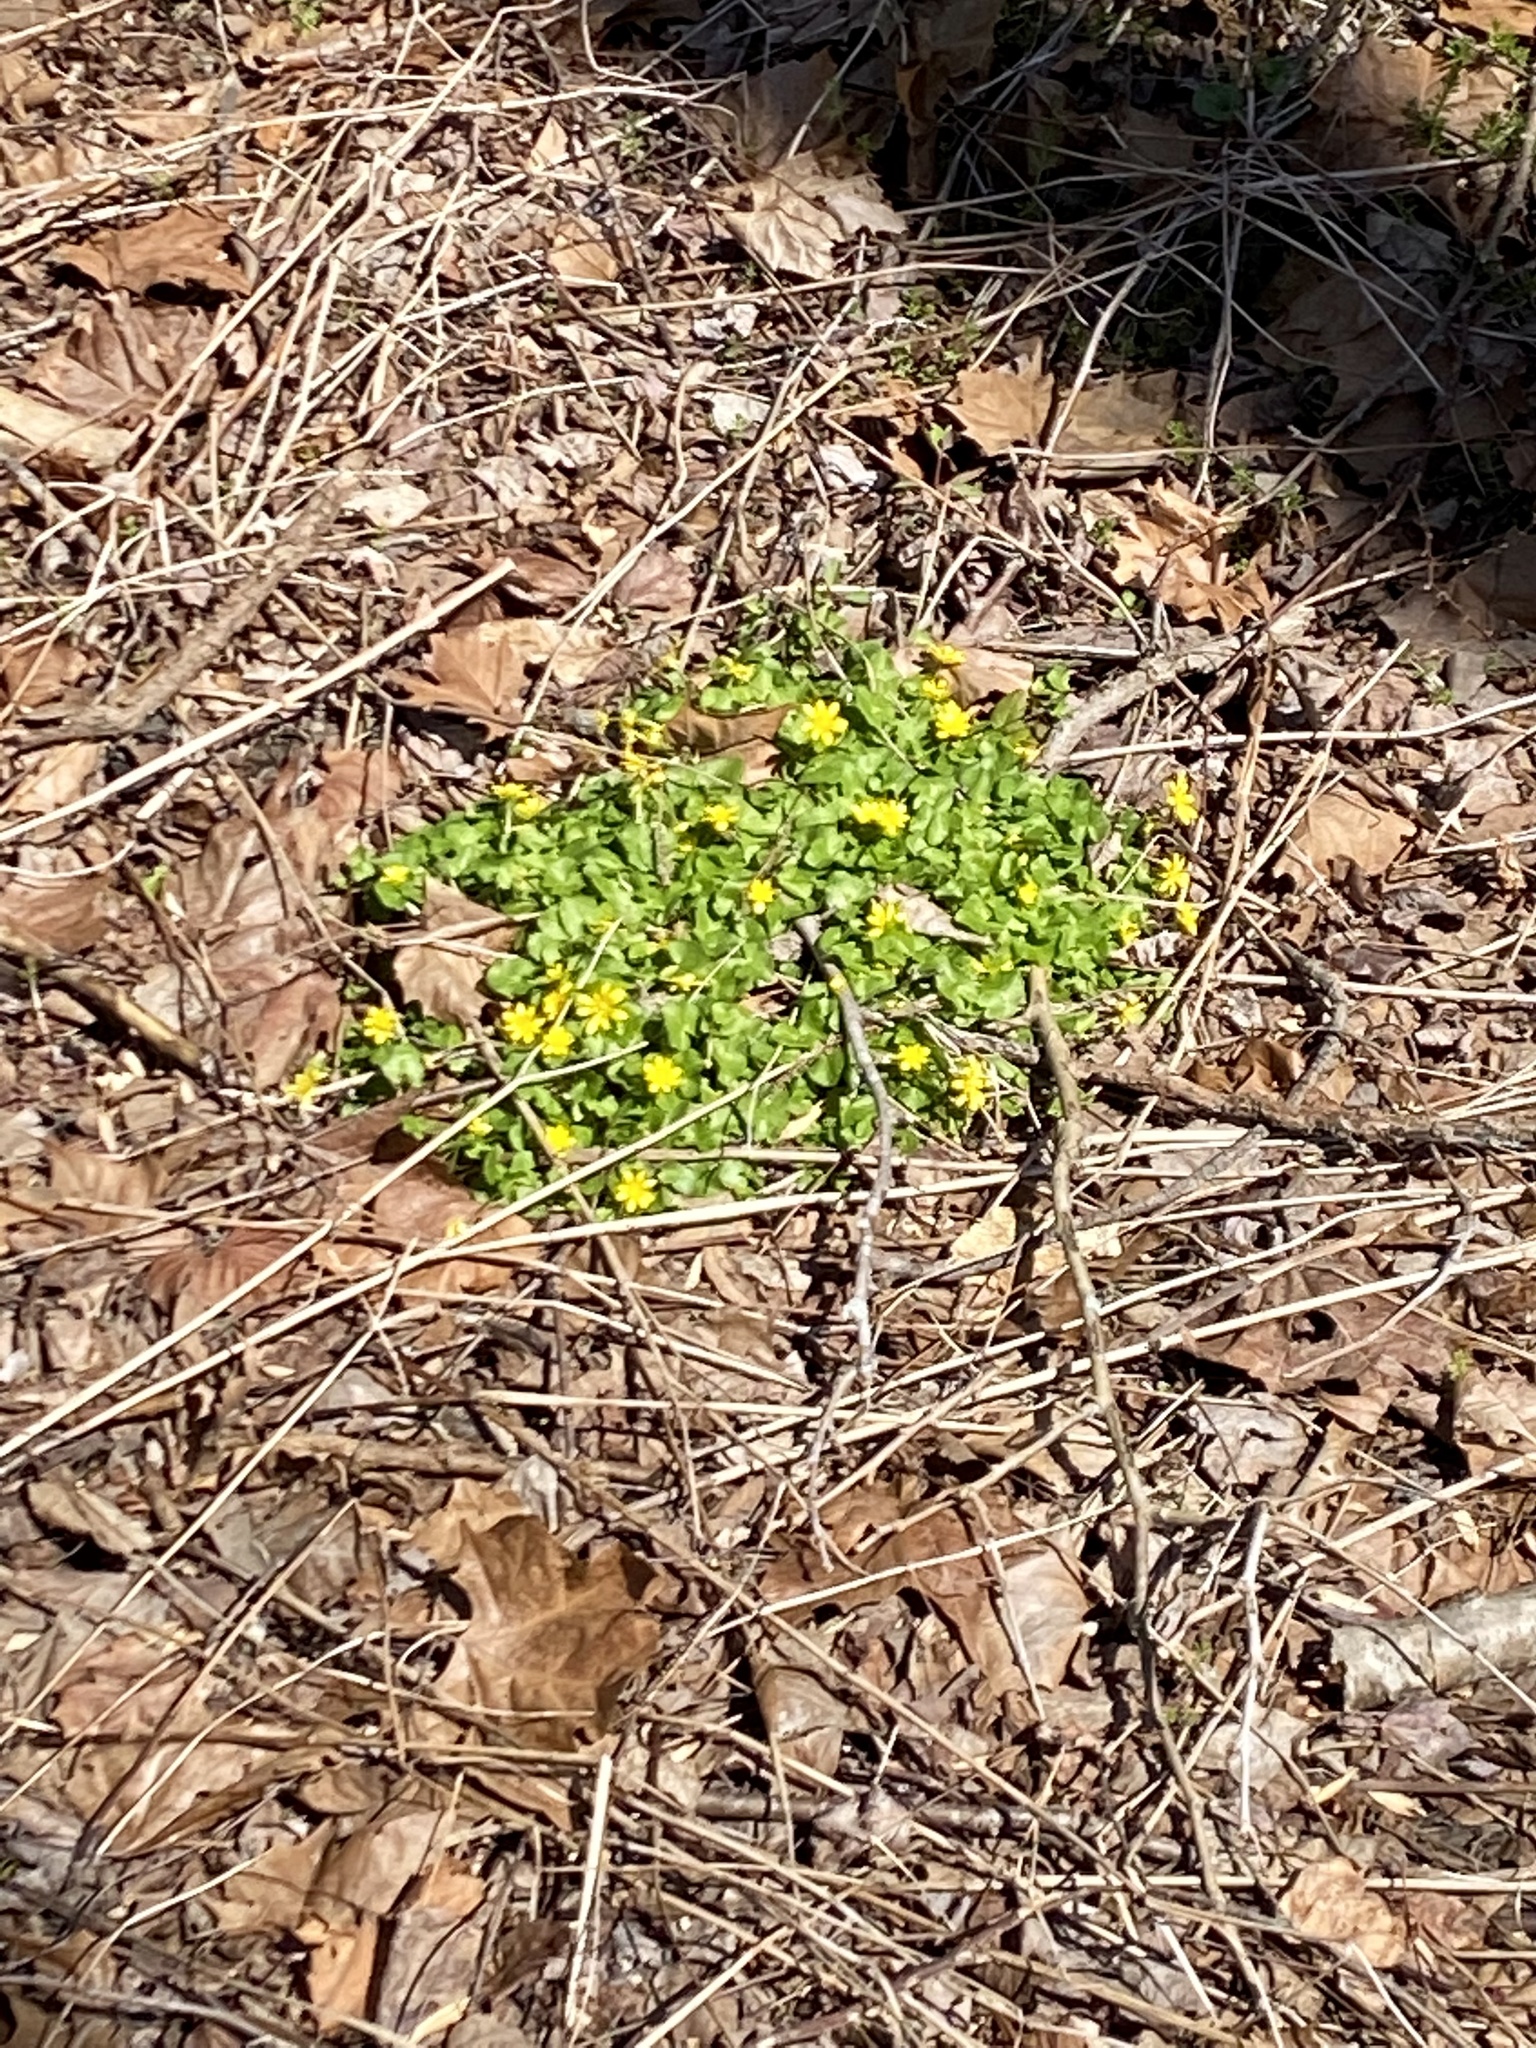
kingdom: Plantae
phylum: Tracheophyta
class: Magnoliopsida
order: Ranunculales
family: Ranunculaceae
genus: Ficaria
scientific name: Ficaria verna
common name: Lesser celandine
